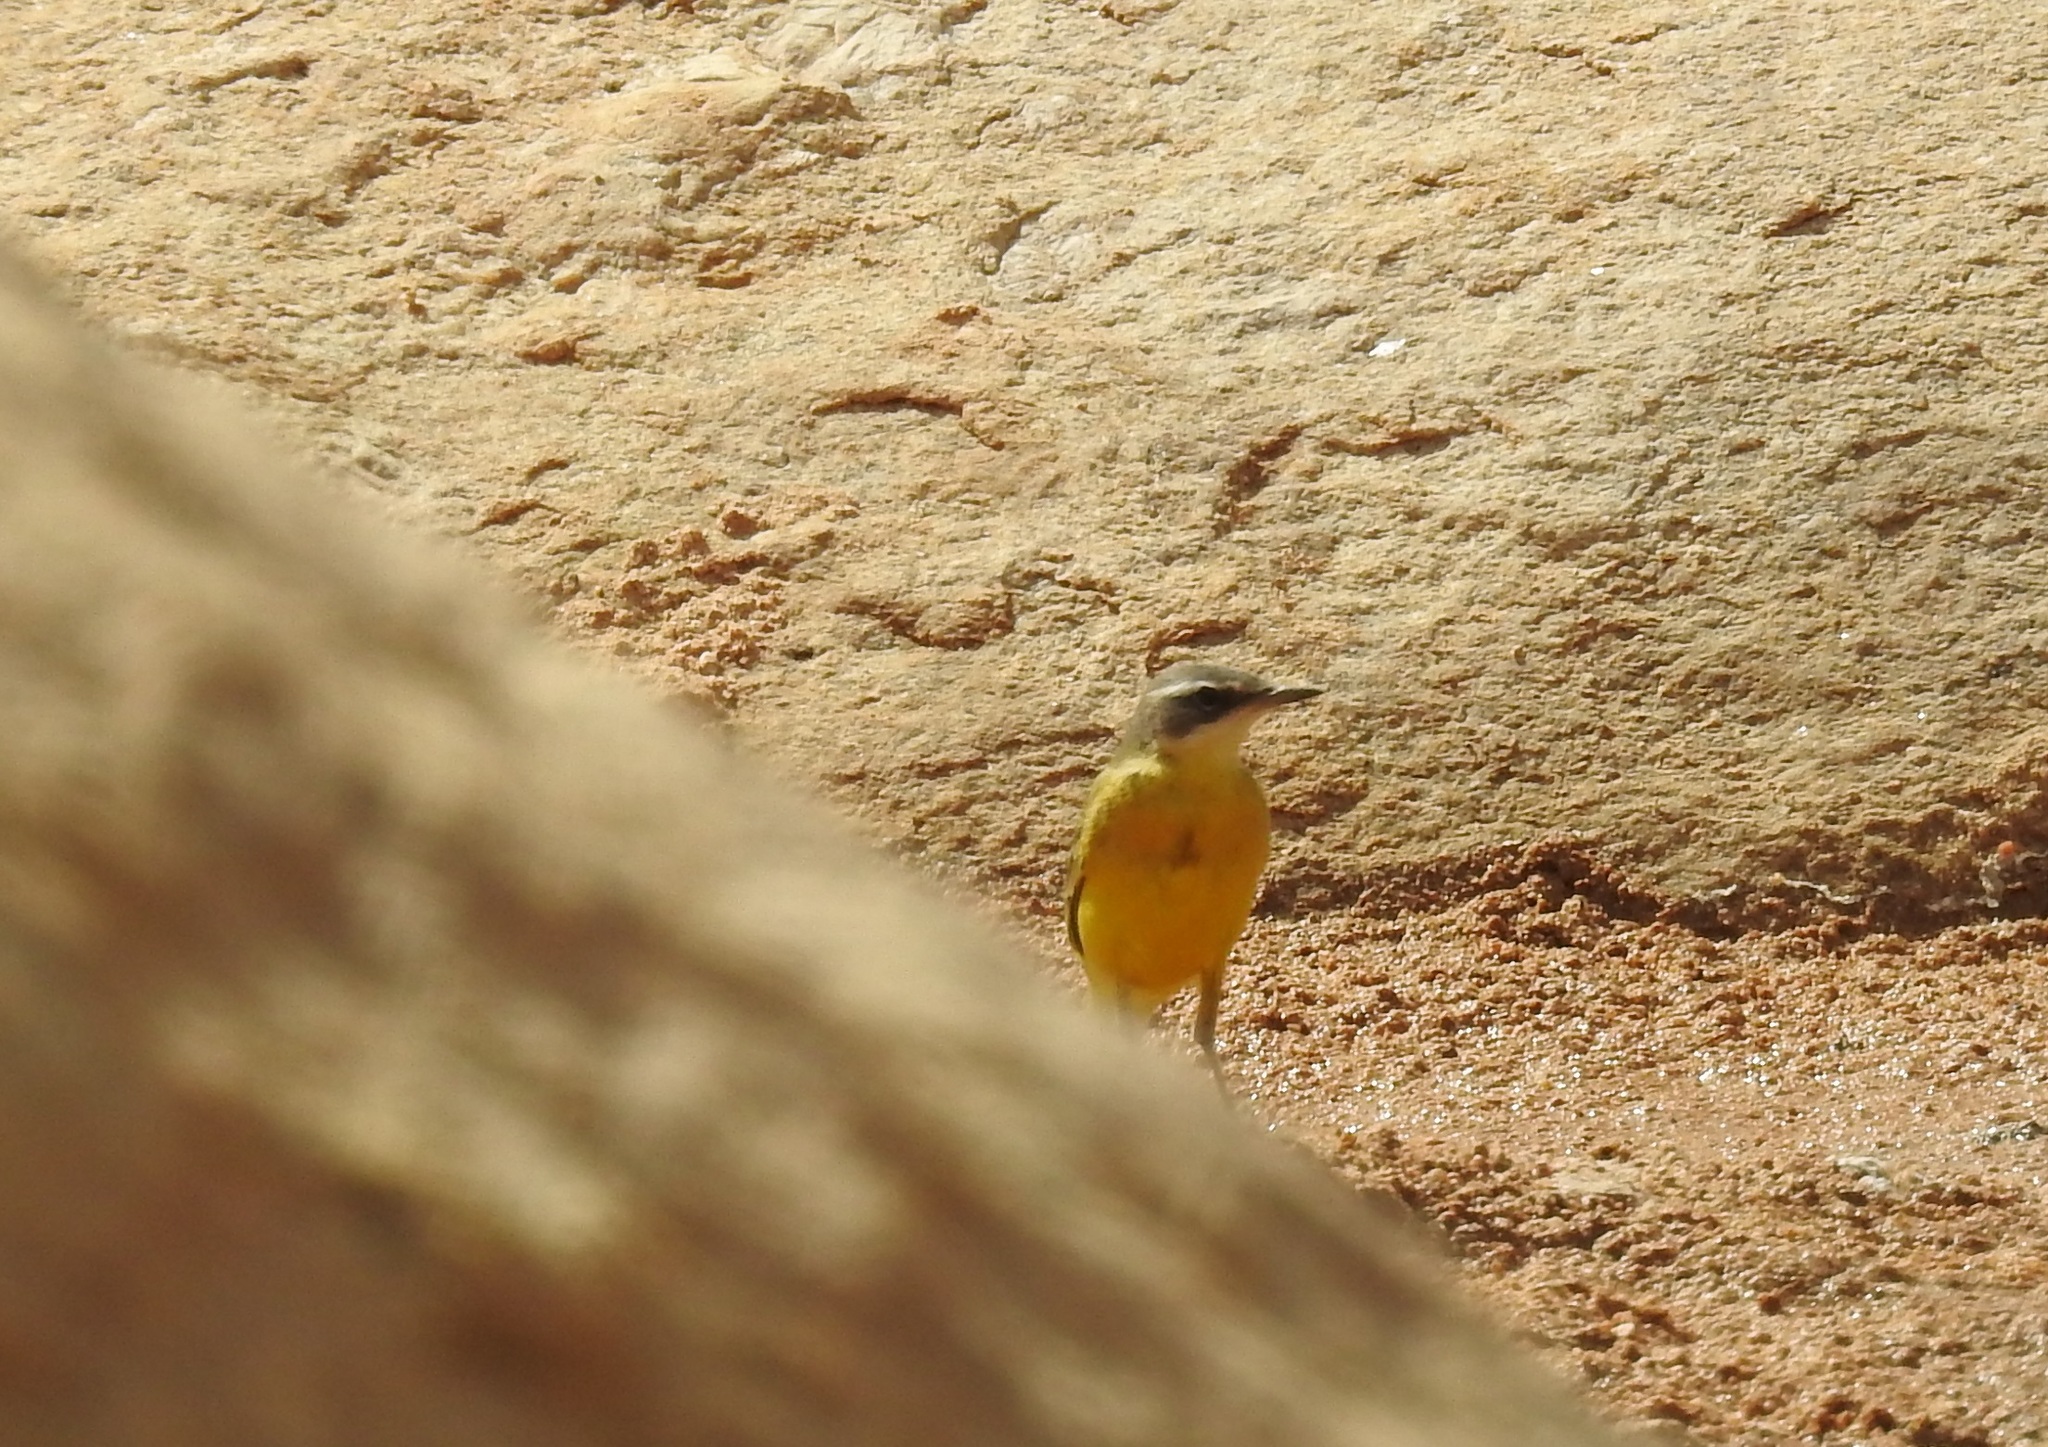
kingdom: Animalia
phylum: Chordata
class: Aves
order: Passeriformes
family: Motacillidae
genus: Motacilla
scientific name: Motacilla flava
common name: Western yellow wagtail
